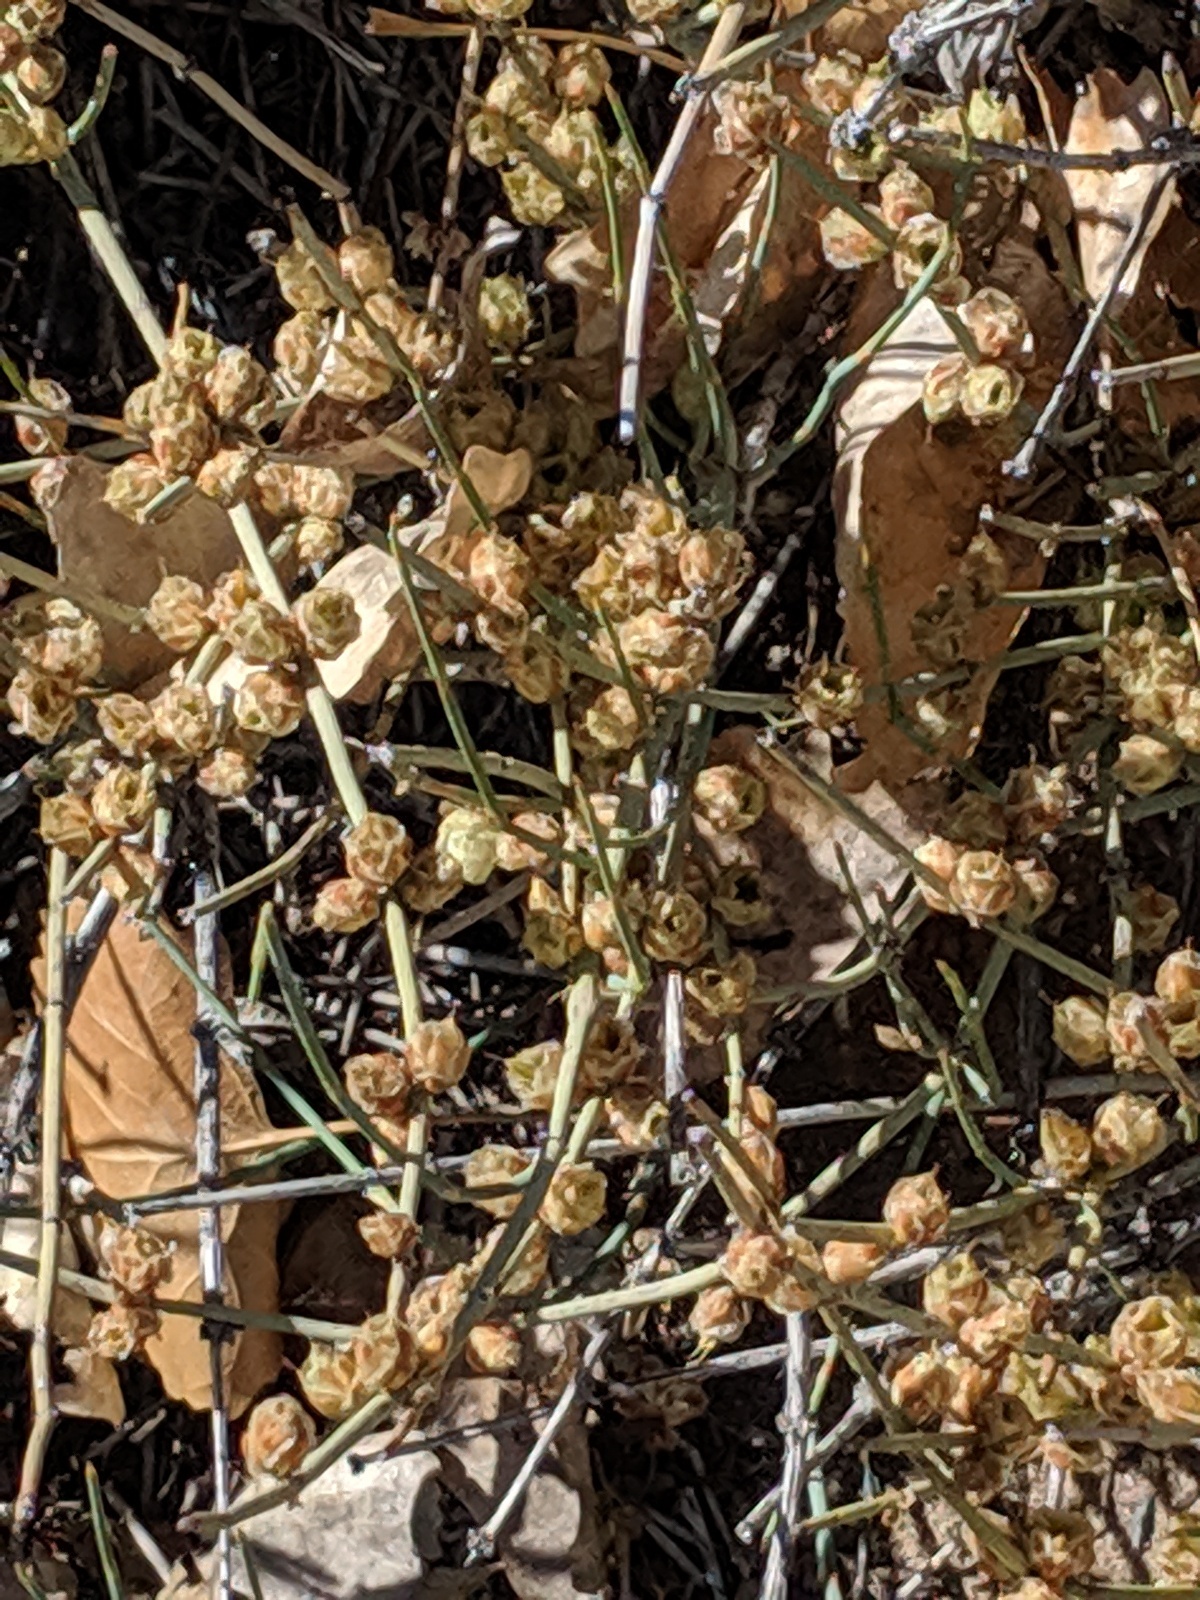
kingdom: Plantae
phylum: Tracheophyta
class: Gnetopsida
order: Ephedrales
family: Ephedraceae
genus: Ephedra
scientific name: Ephedra torreyana
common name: Torrey ephedra
